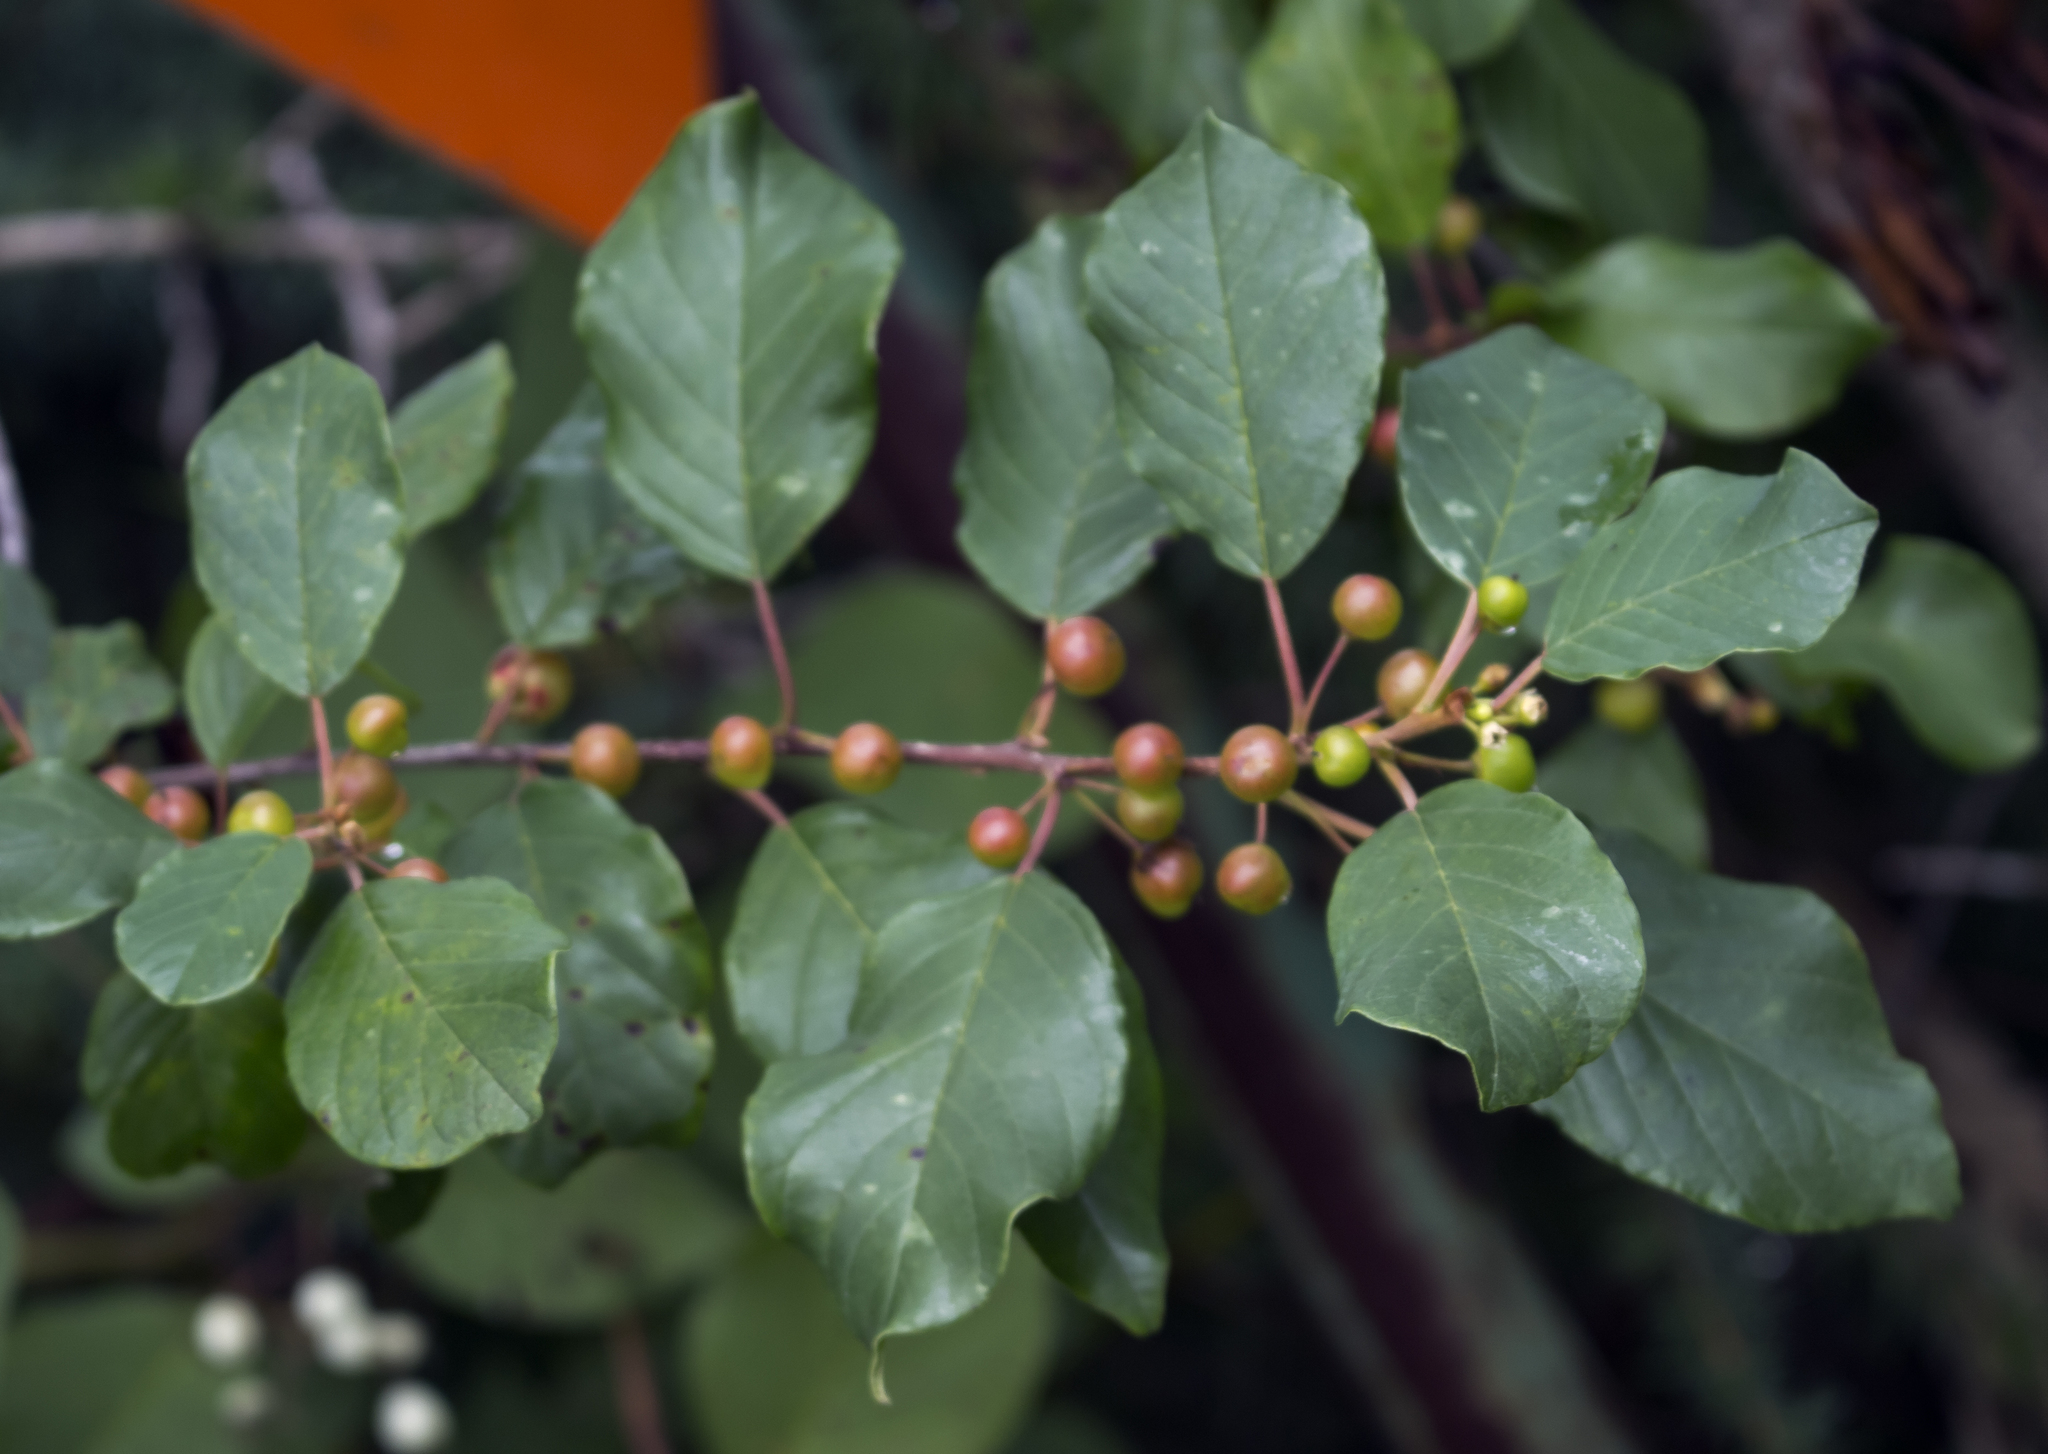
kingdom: Plantae
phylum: Tracheophyta
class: Magnoliopsida
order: Rosales
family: Rhamnaceae
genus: Frangula
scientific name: Frangula alnus
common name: Alder buckthorn
